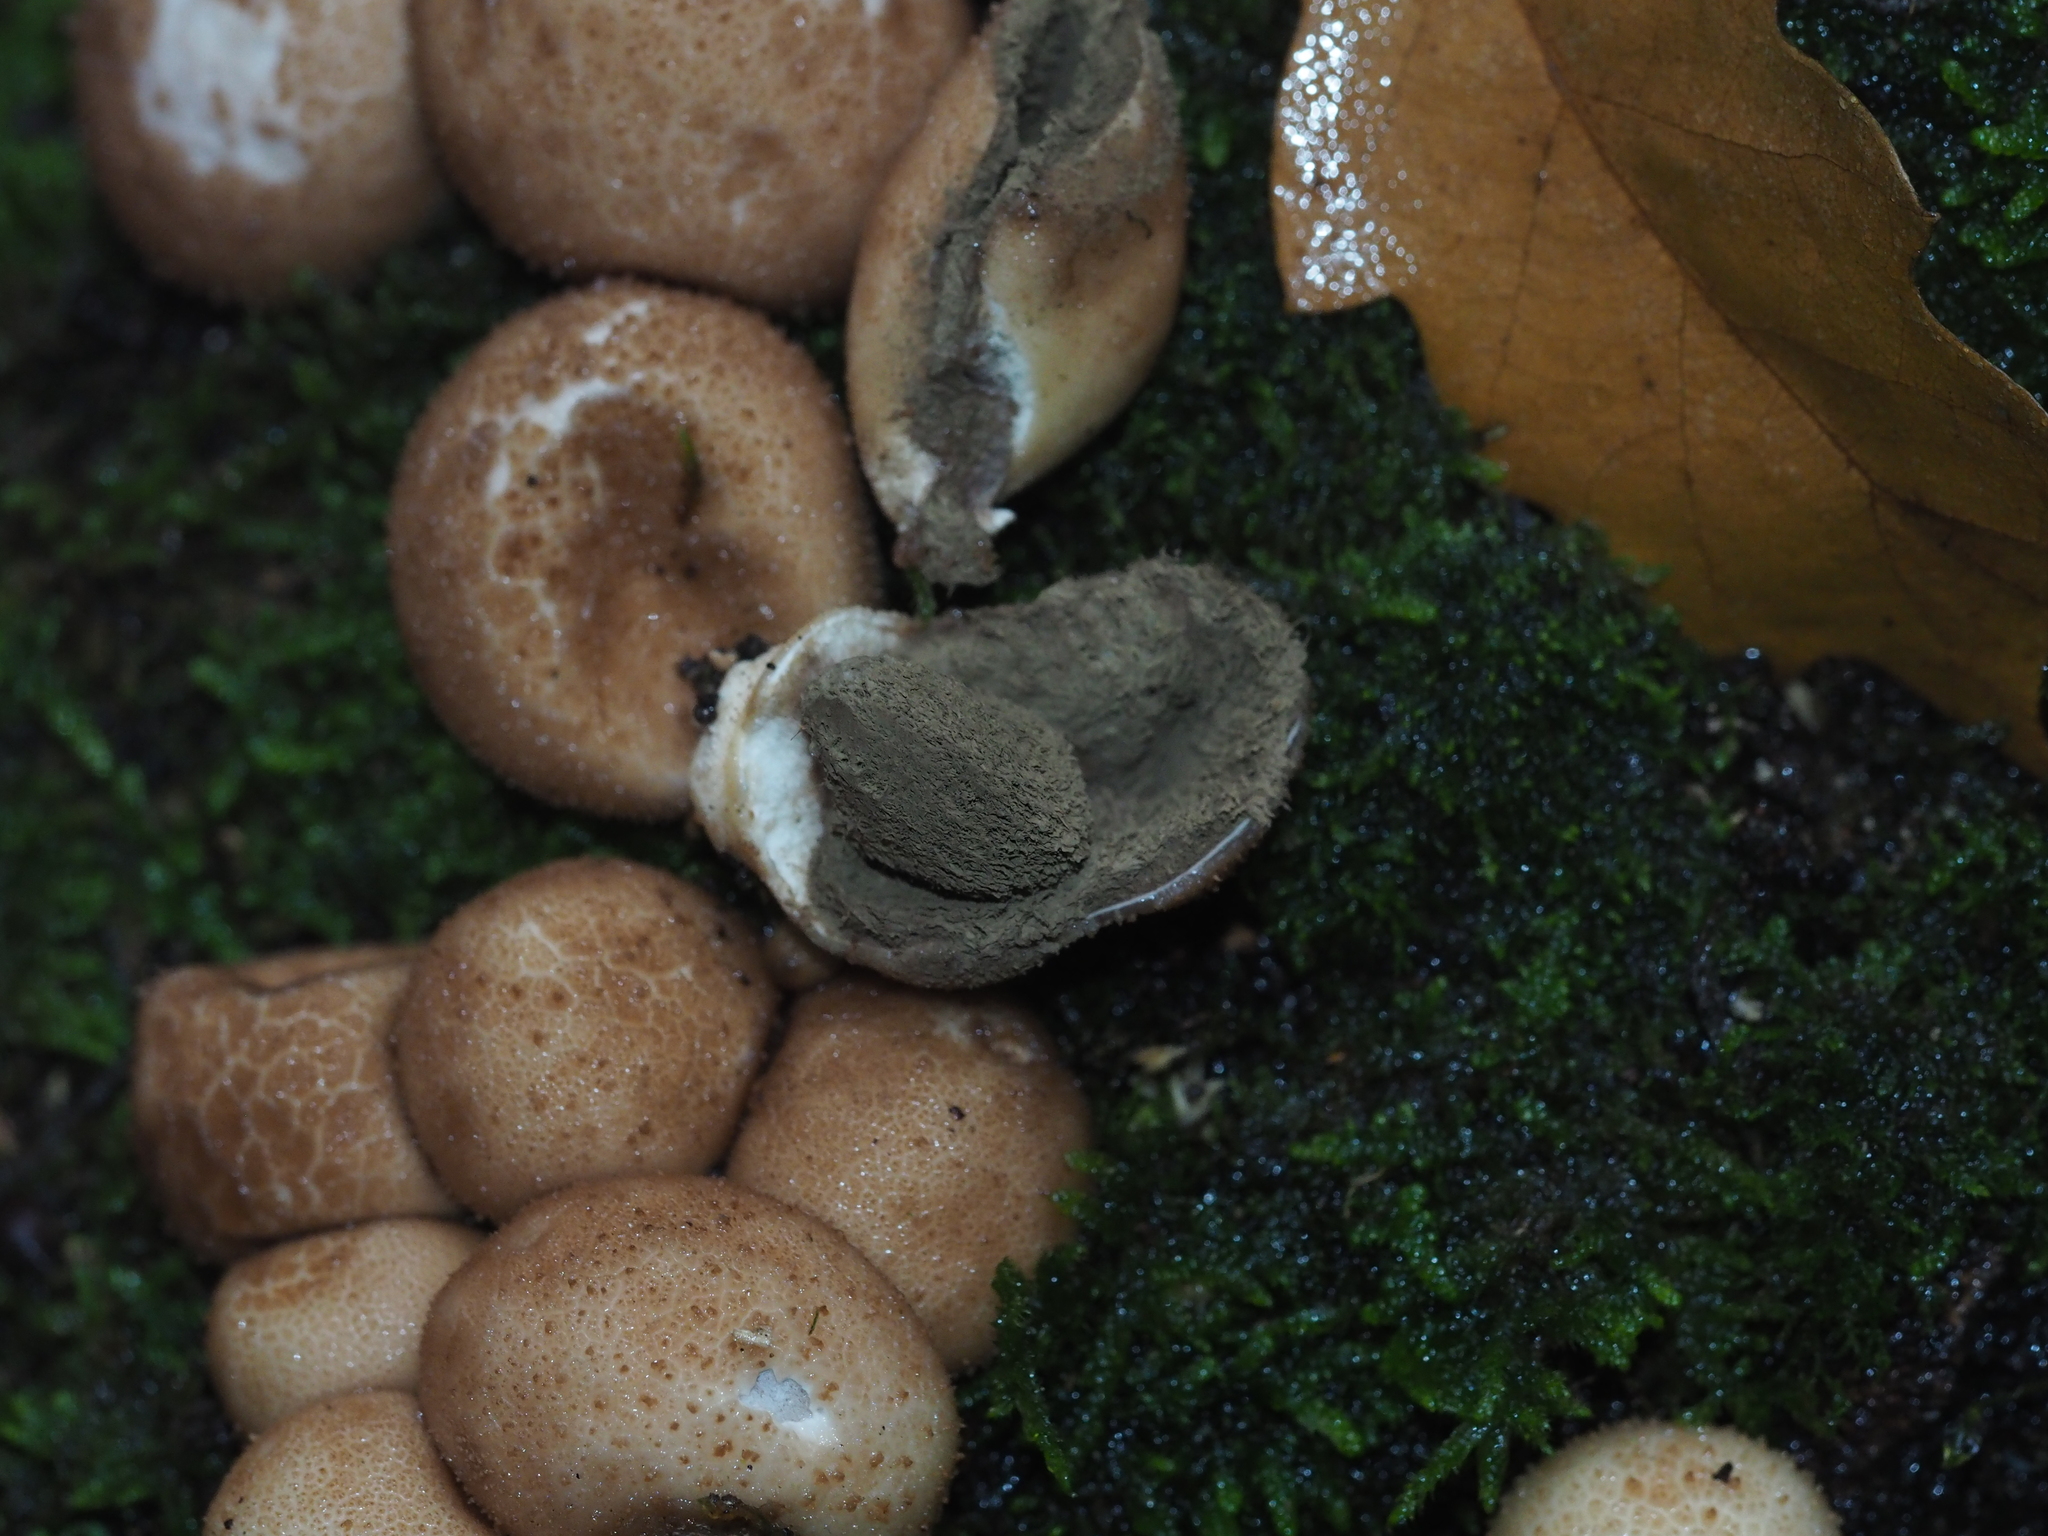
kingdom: Fungi
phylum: Basidiomycota
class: Agaricomycetes
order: Agaricales
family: Lycoperdaceae
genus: Apioperdon
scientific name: Apioperdon pyriforme
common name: Pear-shaped puffball
